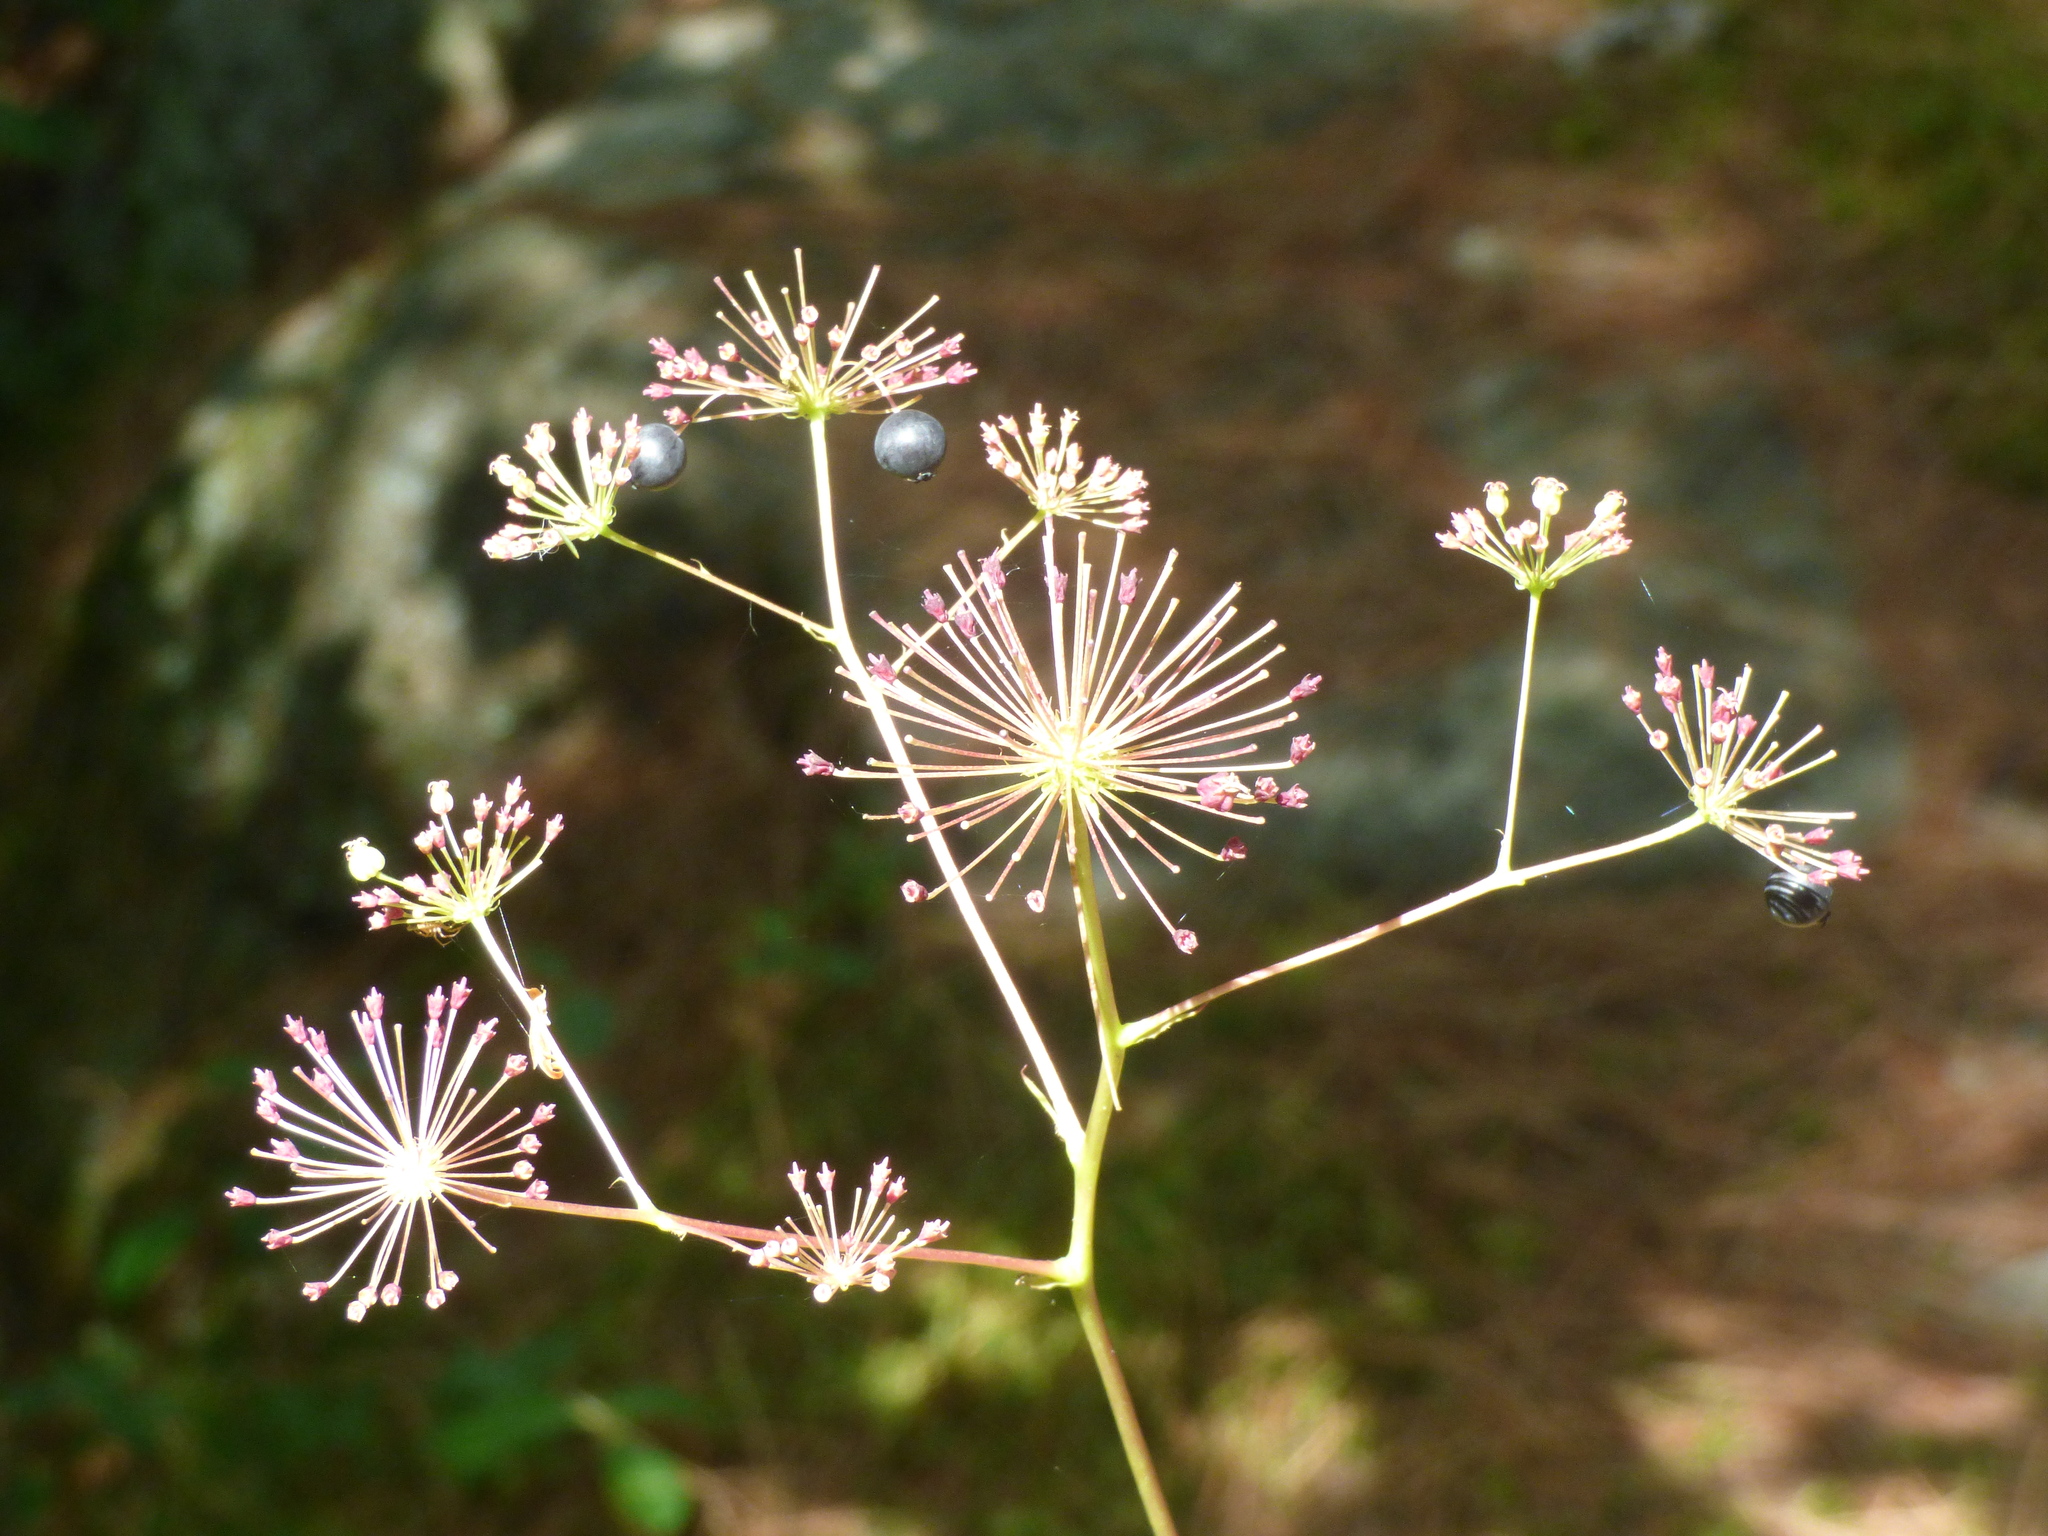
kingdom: Plantae
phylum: Tracheophyta
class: Magnoliopsida
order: Apiales
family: Araliaceae
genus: Aralia
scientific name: Aralia hispida
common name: Bristly sarsaparilla
